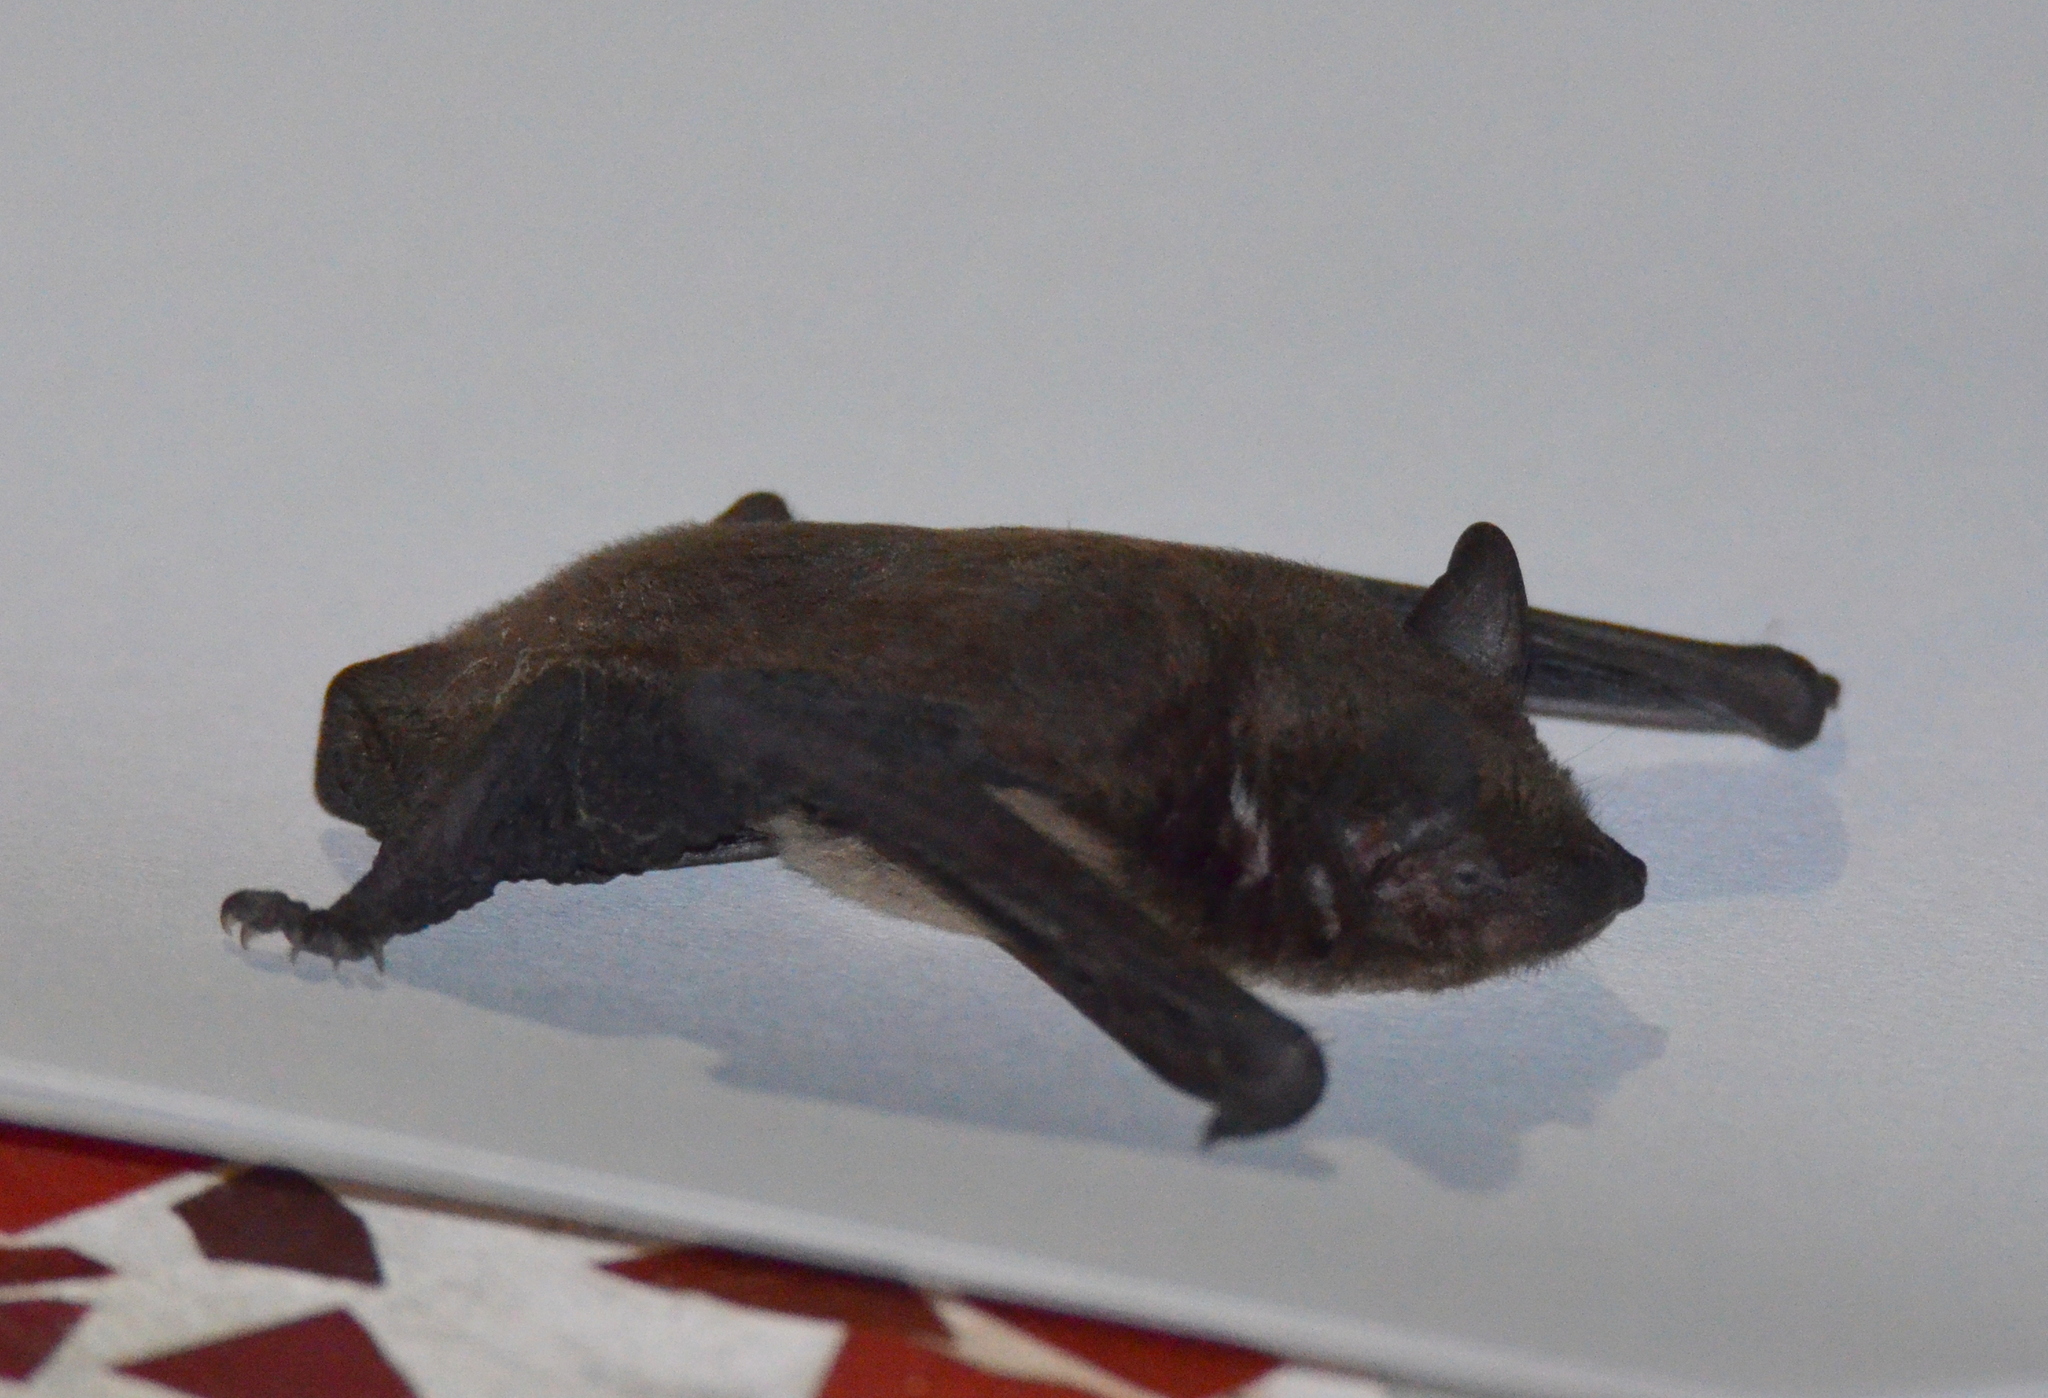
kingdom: Animalia
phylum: Chordata
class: Mammalia
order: Chiroptera
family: Vespertilionidae
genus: Nycticeius
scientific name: Nycticeius humeralis
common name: Evening bat
